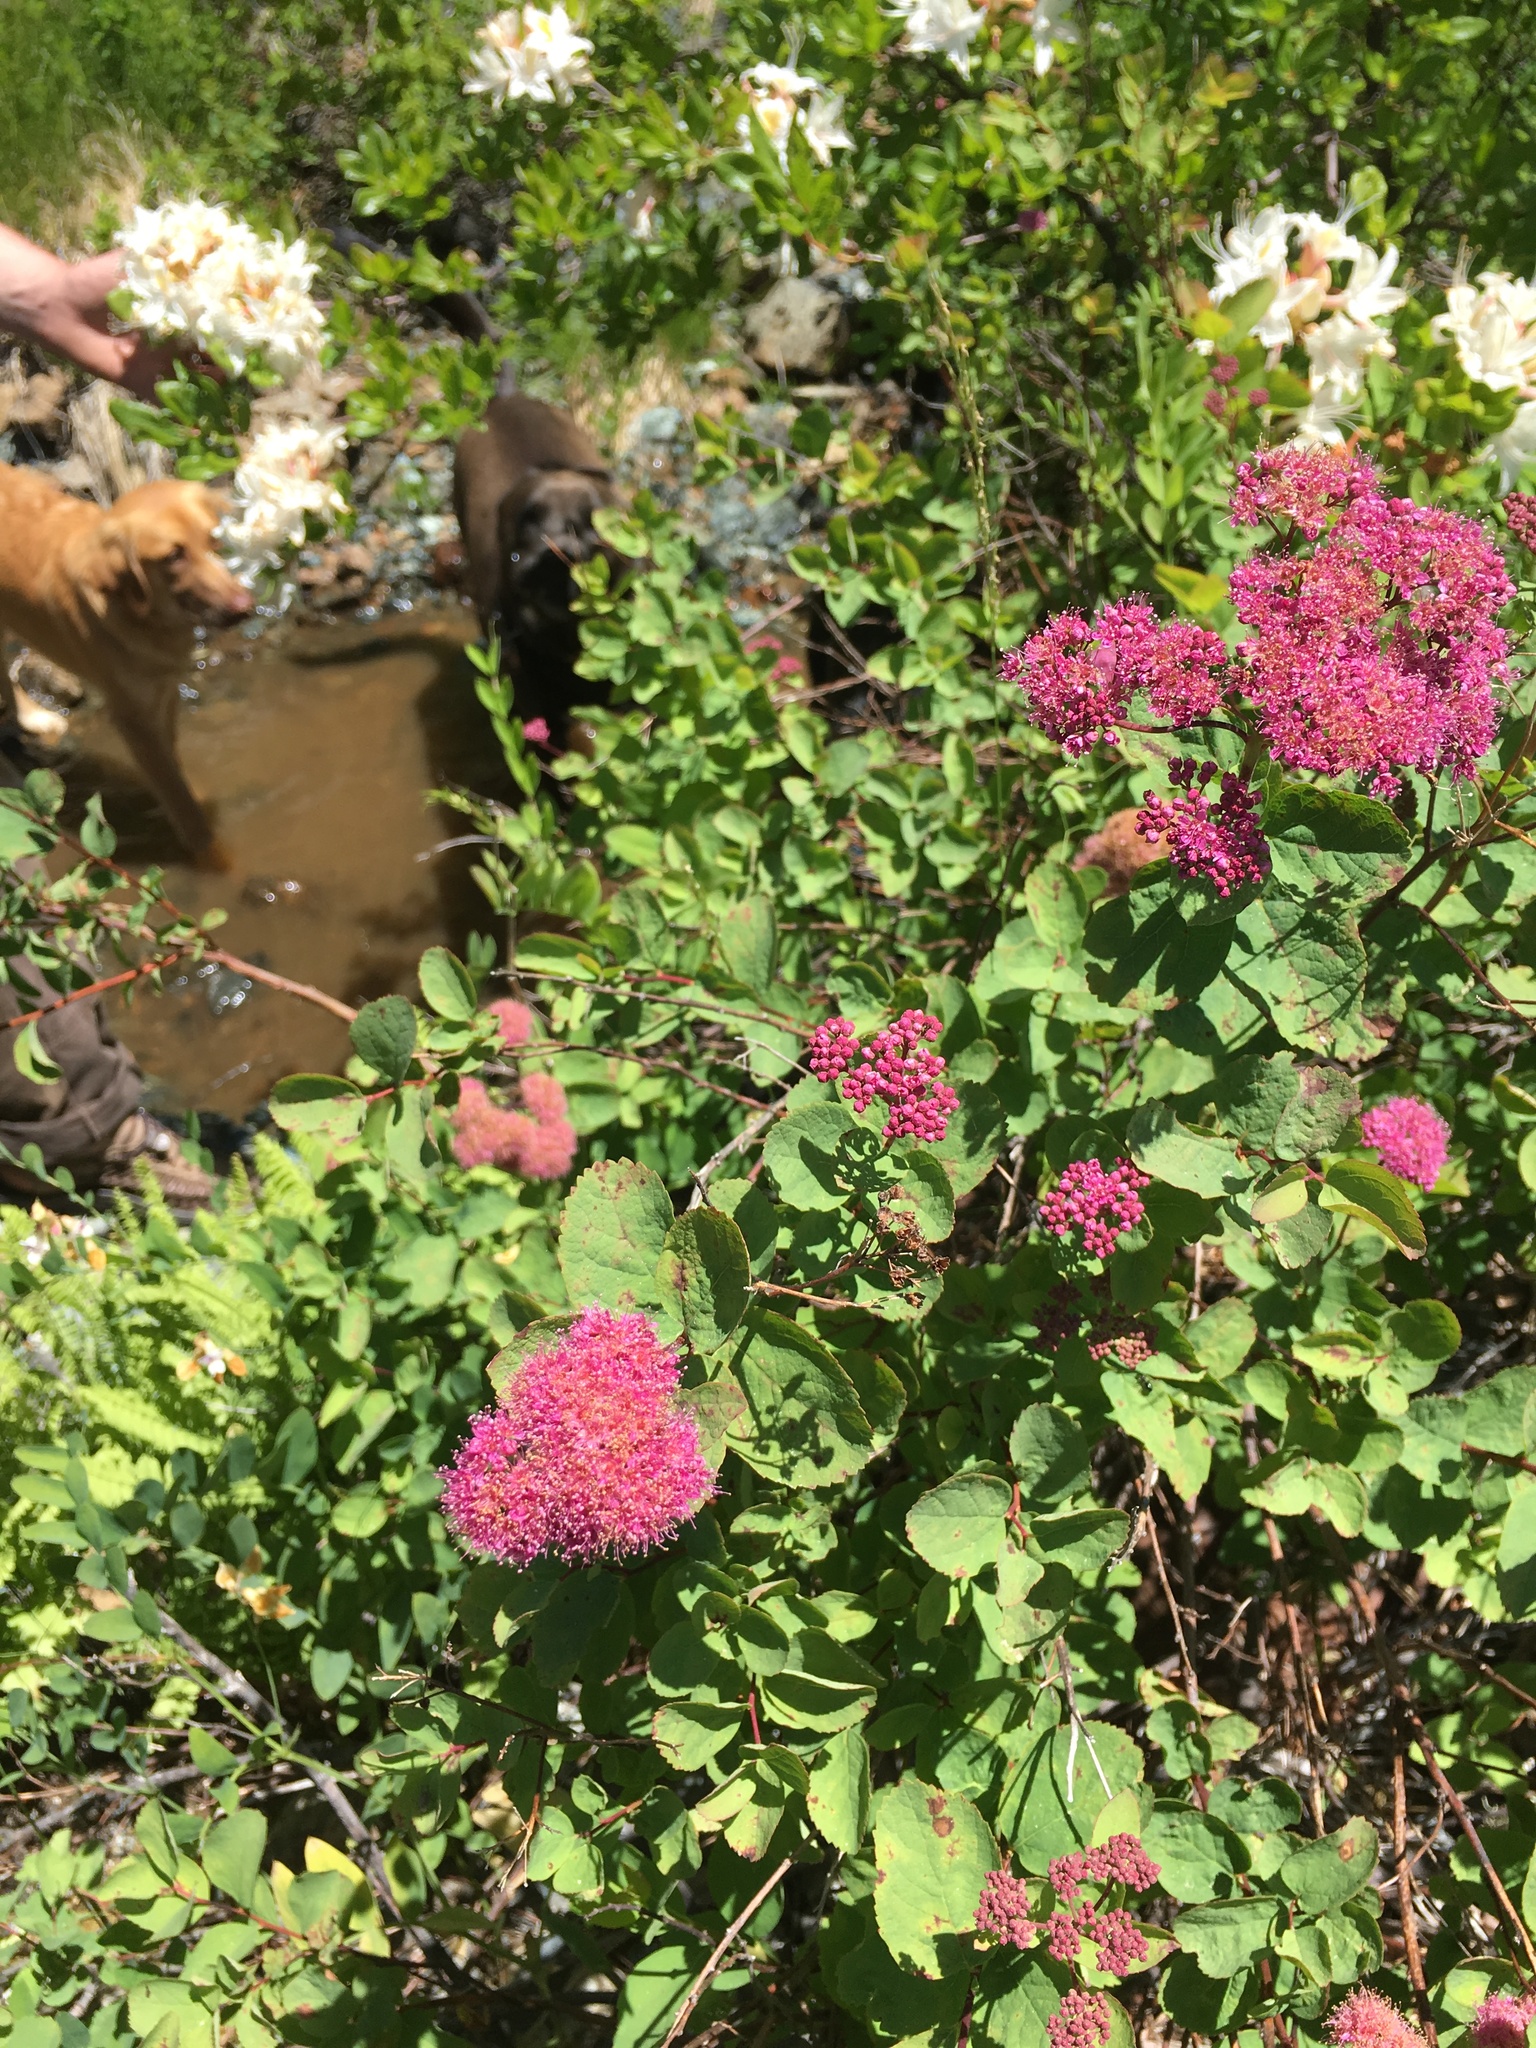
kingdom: Plantae
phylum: Tracheophyta
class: Magnoliopsida
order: Rosales
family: Rosaceae
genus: Spiraea
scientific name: Spiraea splendens
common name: Subalpine meadowsweet
